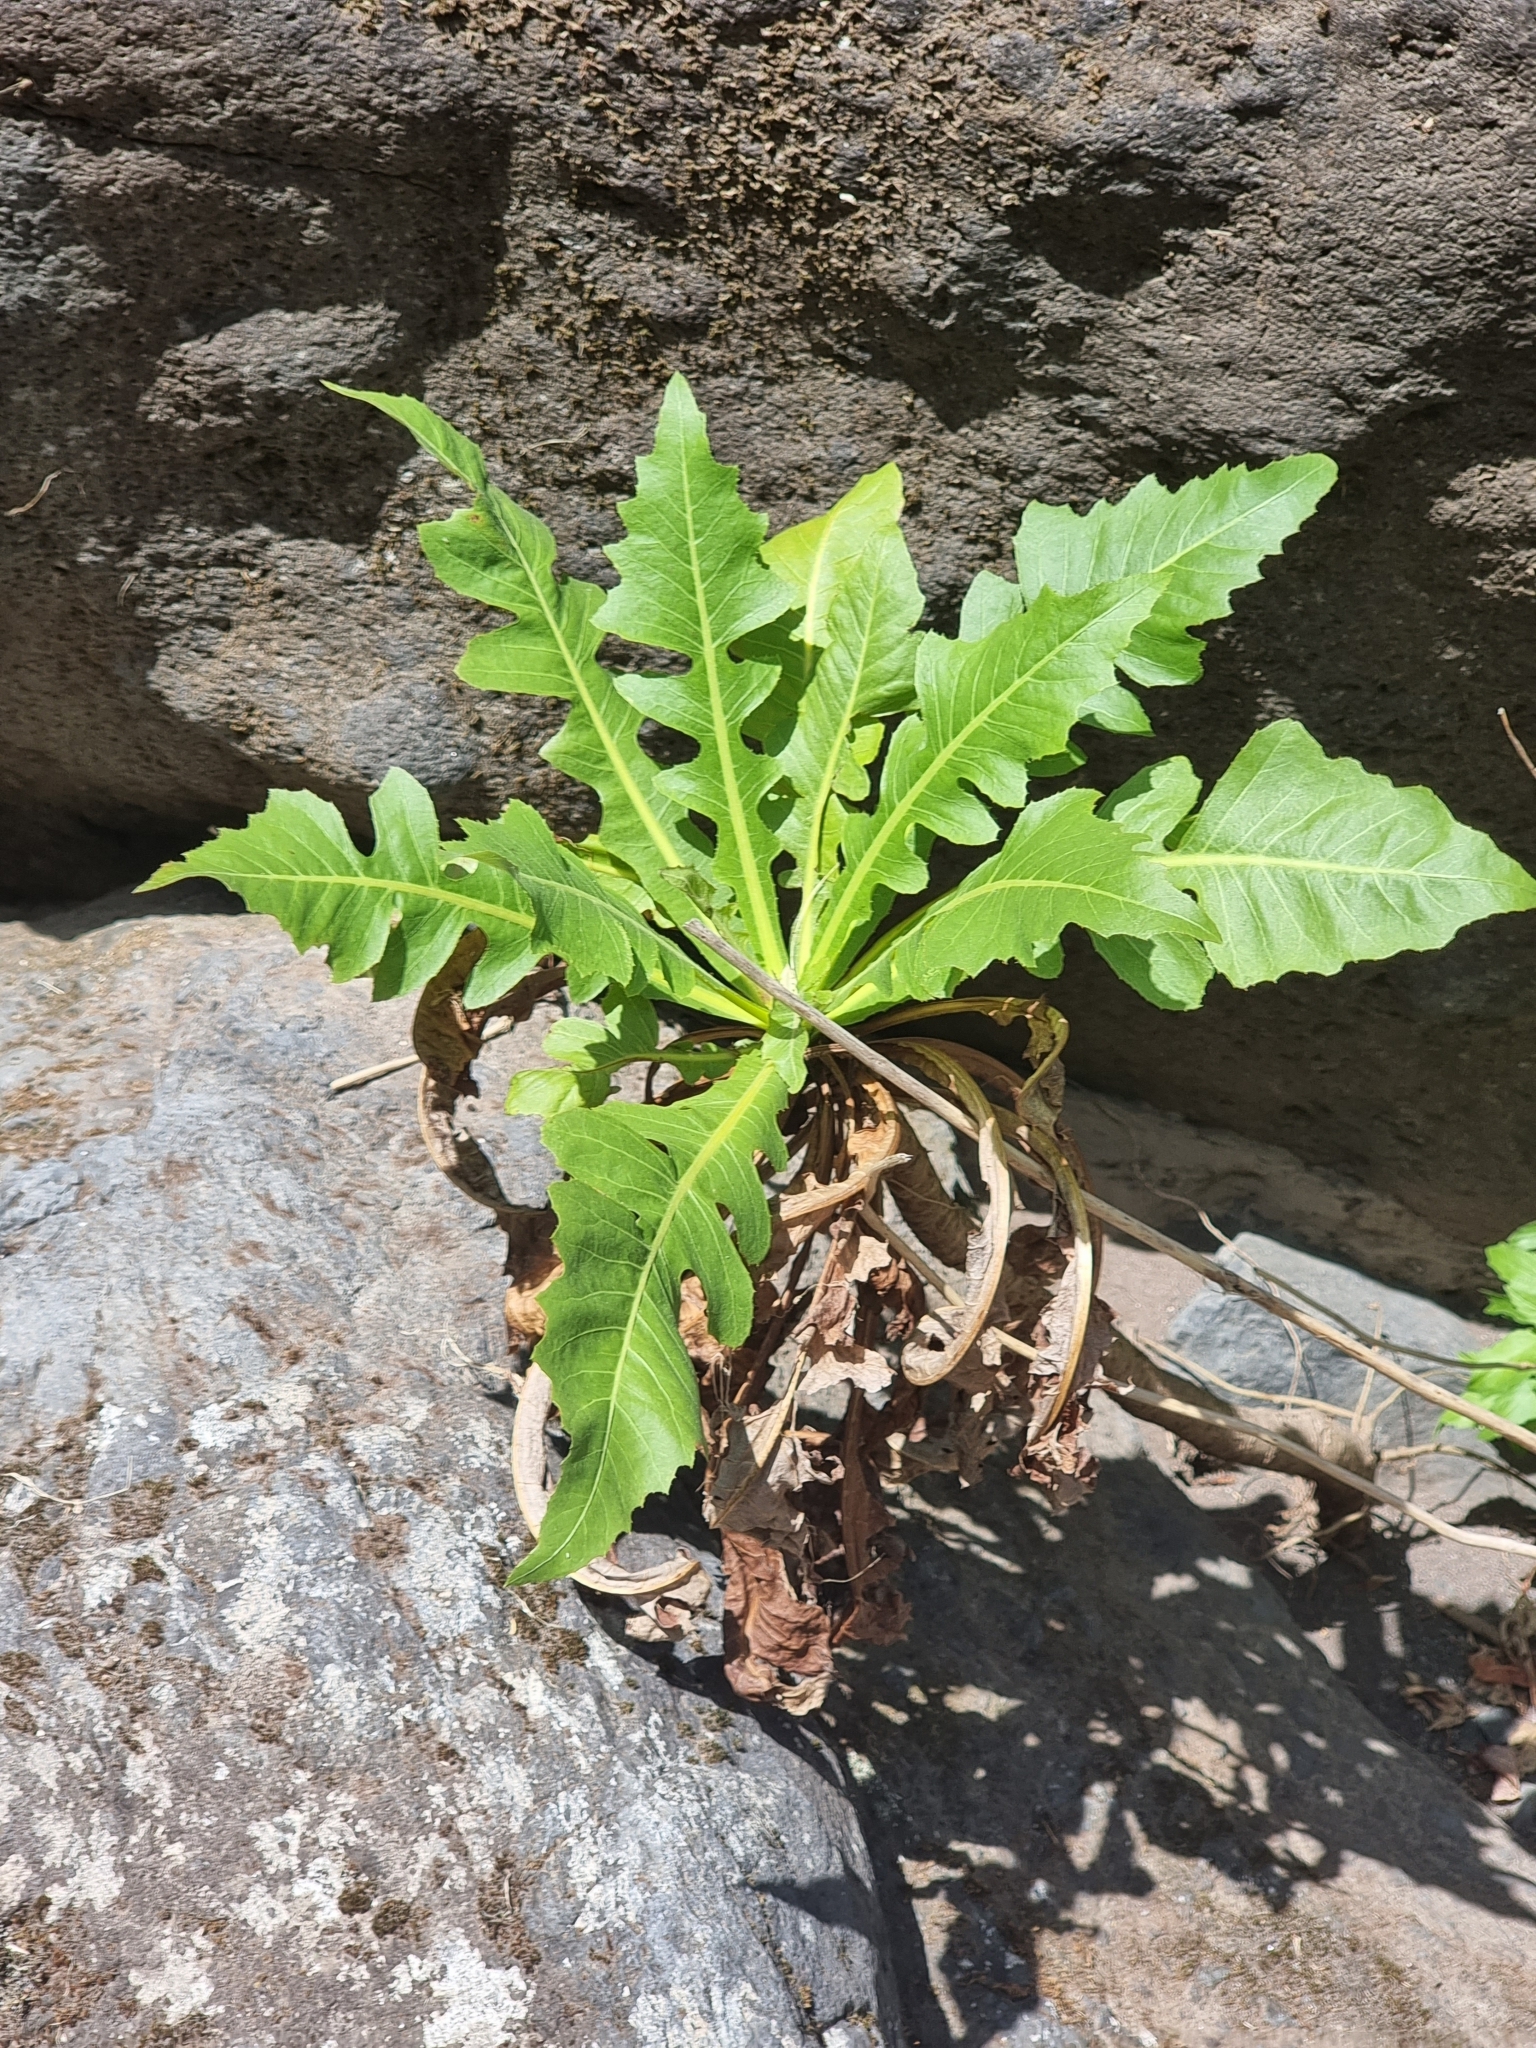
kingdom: Plantae
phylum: Tracheophyta
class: Magnoliopsida
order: Asterales
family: Asteraceae
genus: Sonchus
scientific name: Sonchus fruticosus
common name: Shrubby sow-thistle
